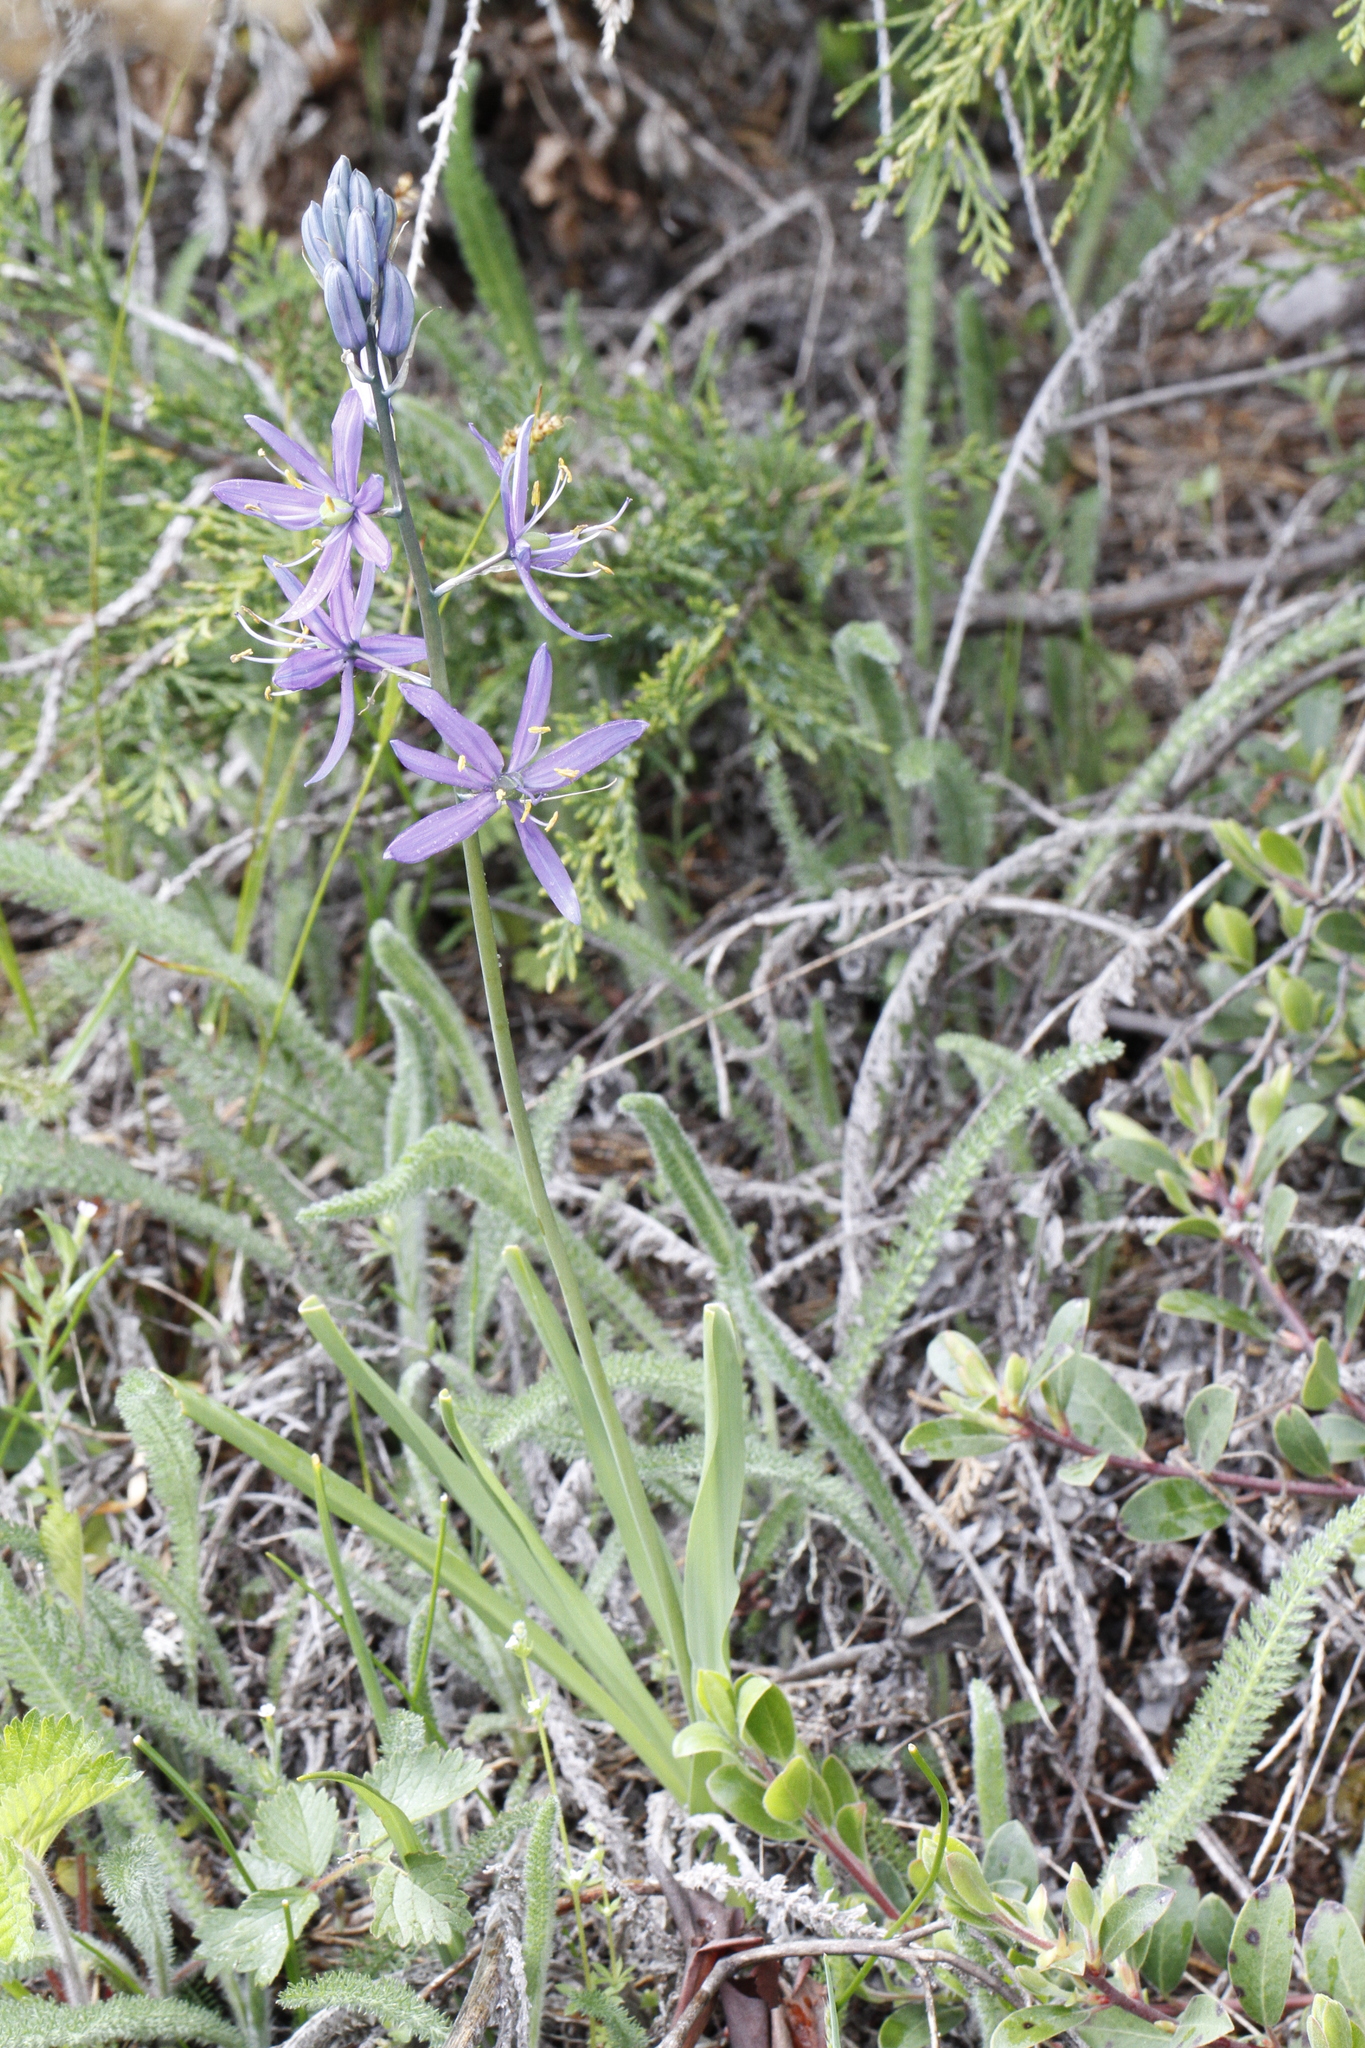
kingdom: Plantae
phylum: Tracheophyta
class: Liliopsida
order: Asparagales
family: Asparagaceae
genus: Camassia
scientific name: Camassia quamash
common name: Common camas
